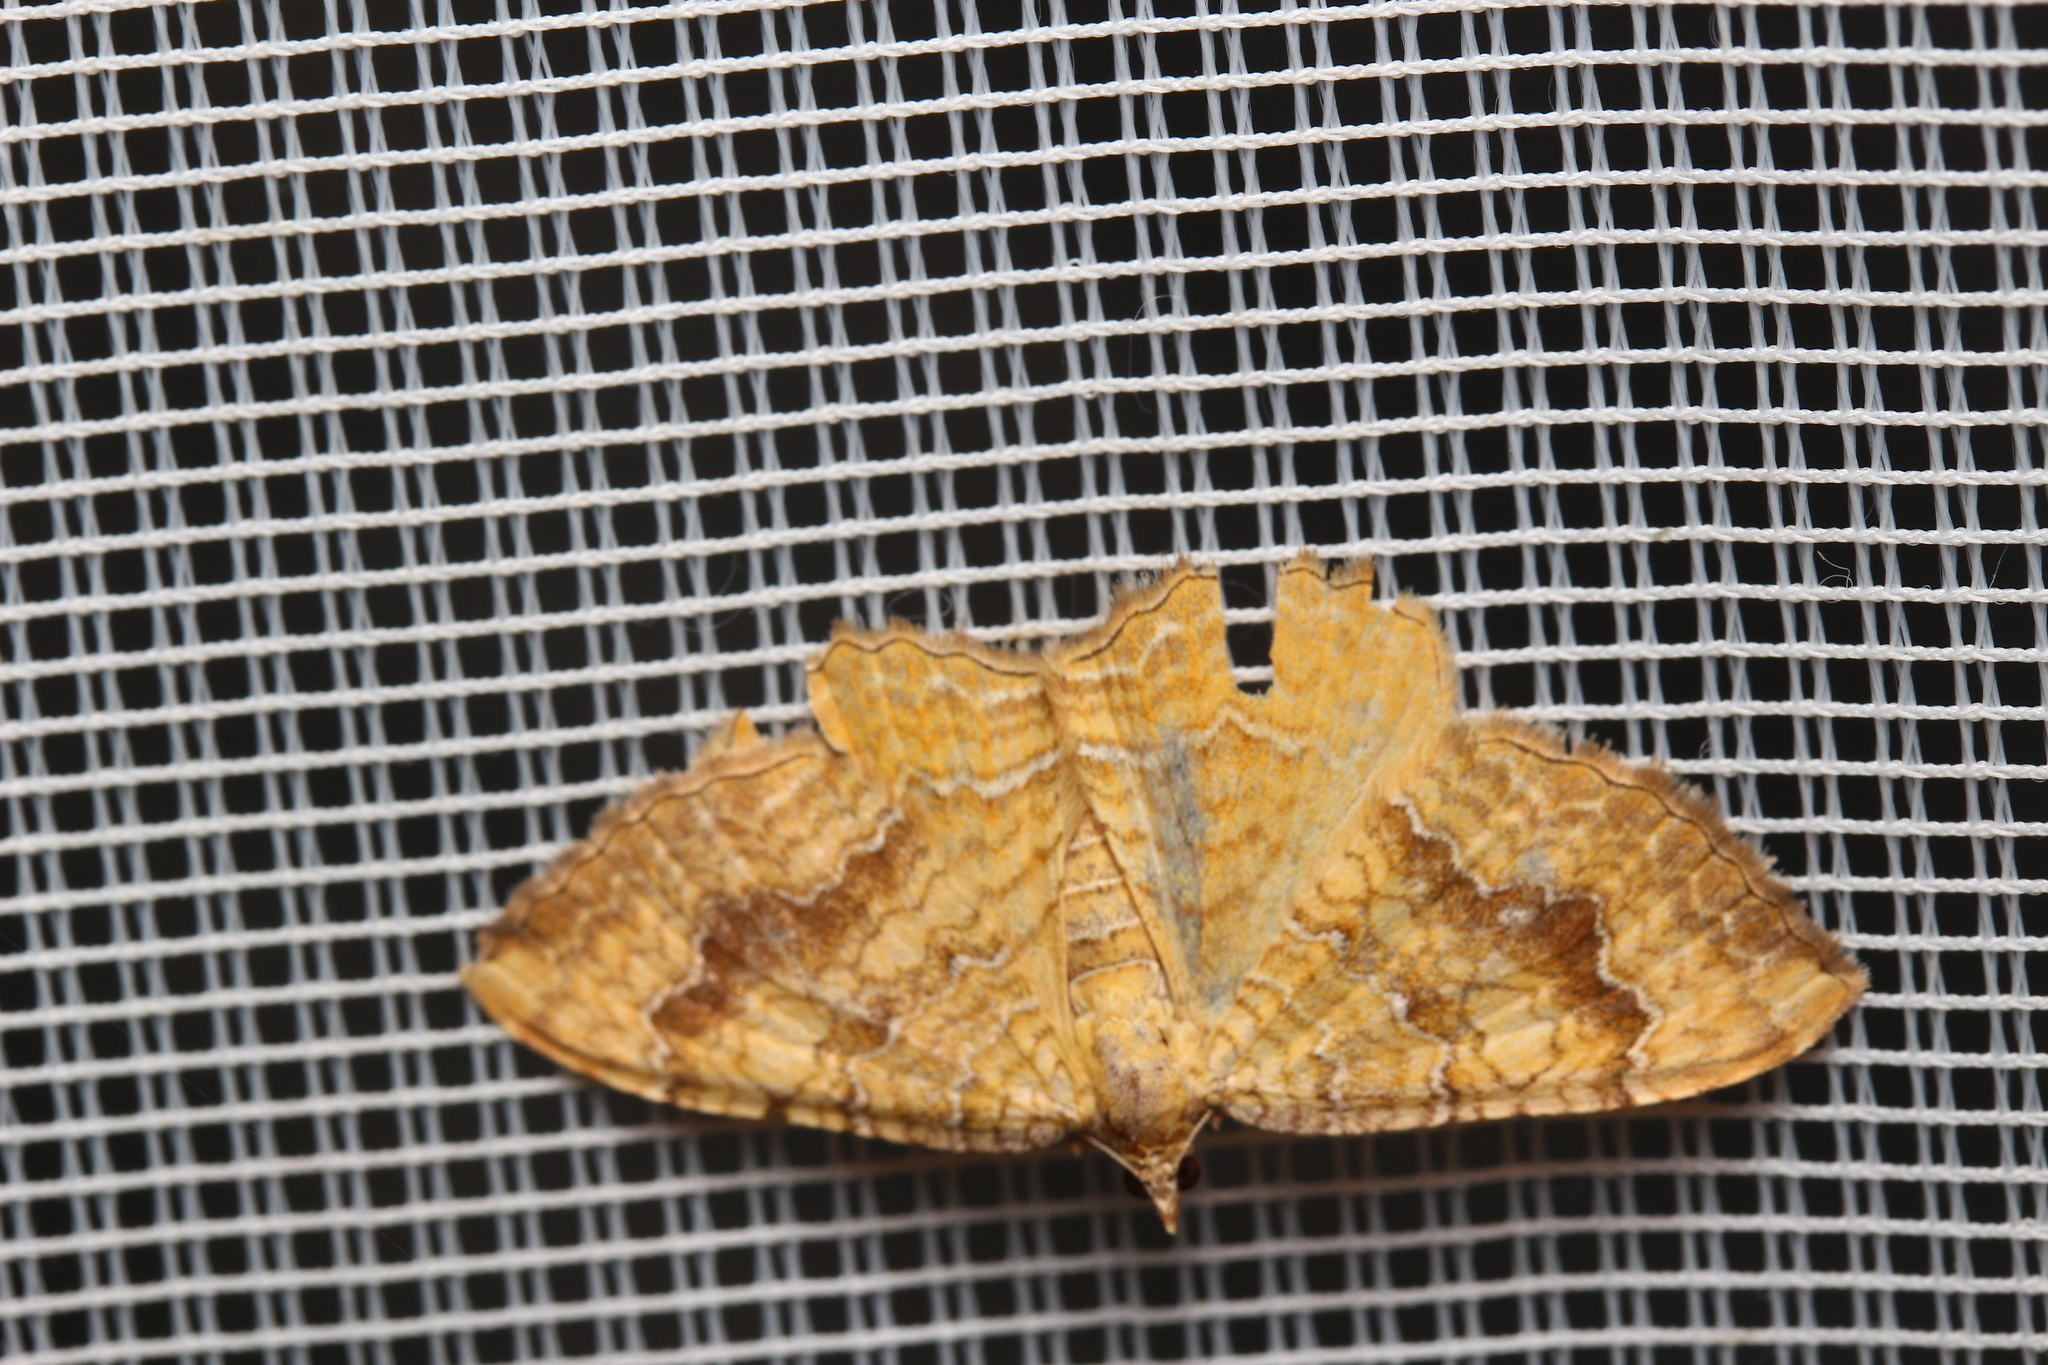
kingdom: Animalia
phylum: Arthropoda
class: Insecta
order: Lepidoptera
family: Geometridae
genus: Camptogramma
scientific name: Camptogramma bilineata
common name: Yellow shell
